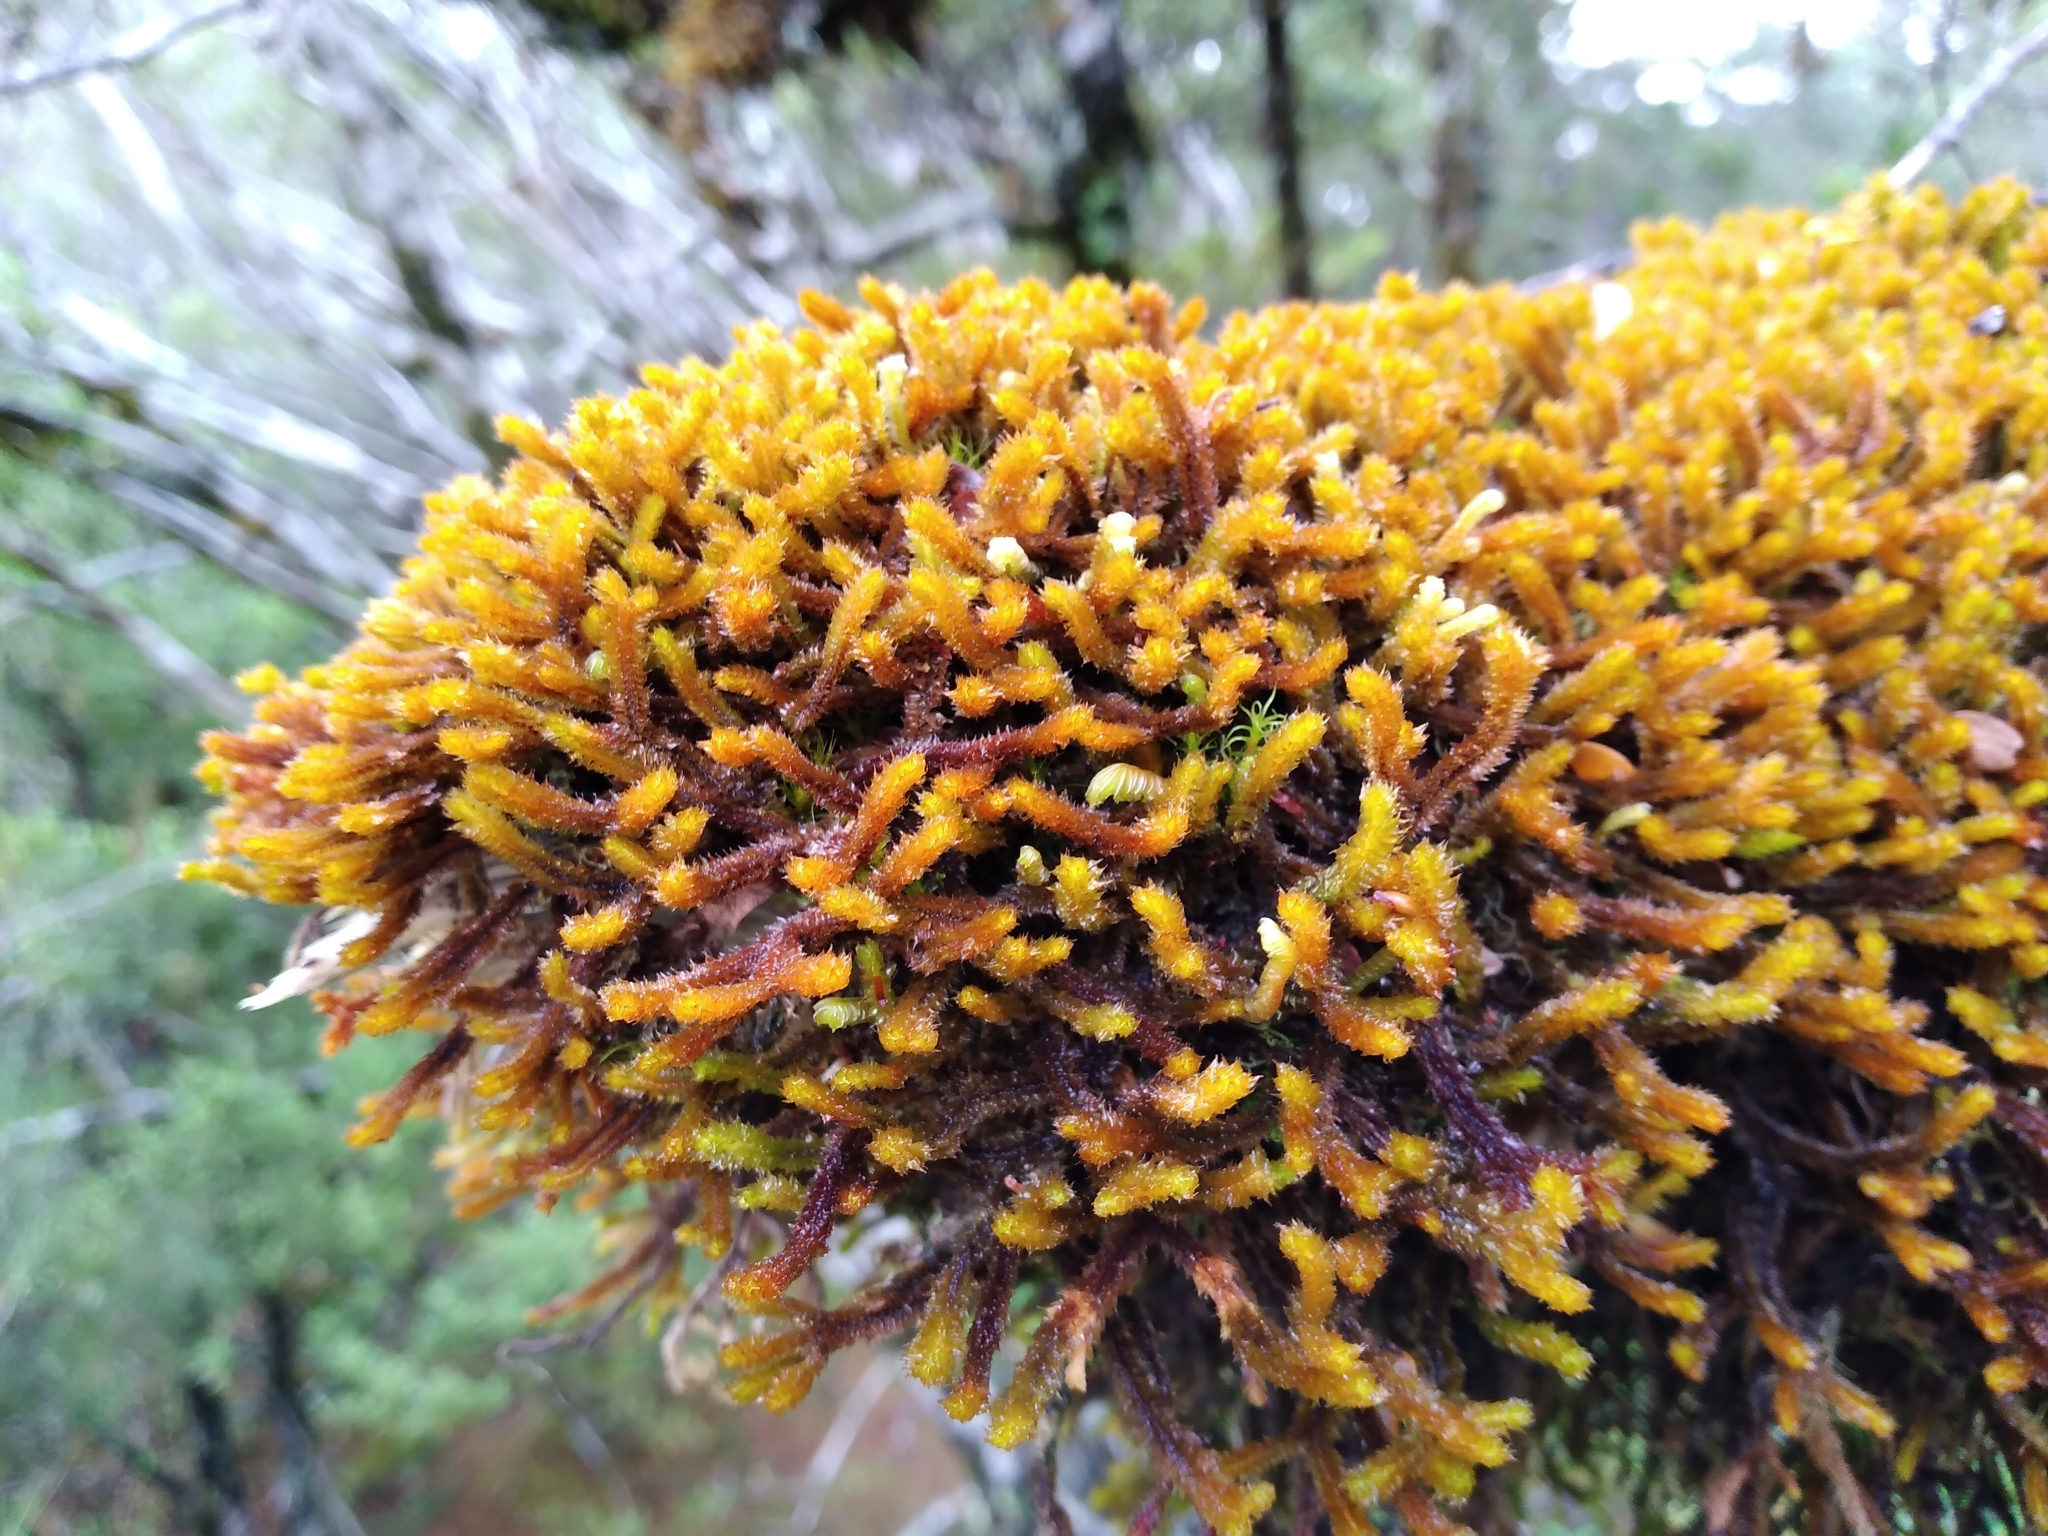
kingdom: Plantae
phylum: Marchantiophyta
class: Jungermanniopsida
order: Jungermanniales
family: Anastrophyllaceae
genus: Chandonanthus
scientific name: Chandonanthus squarrosus
